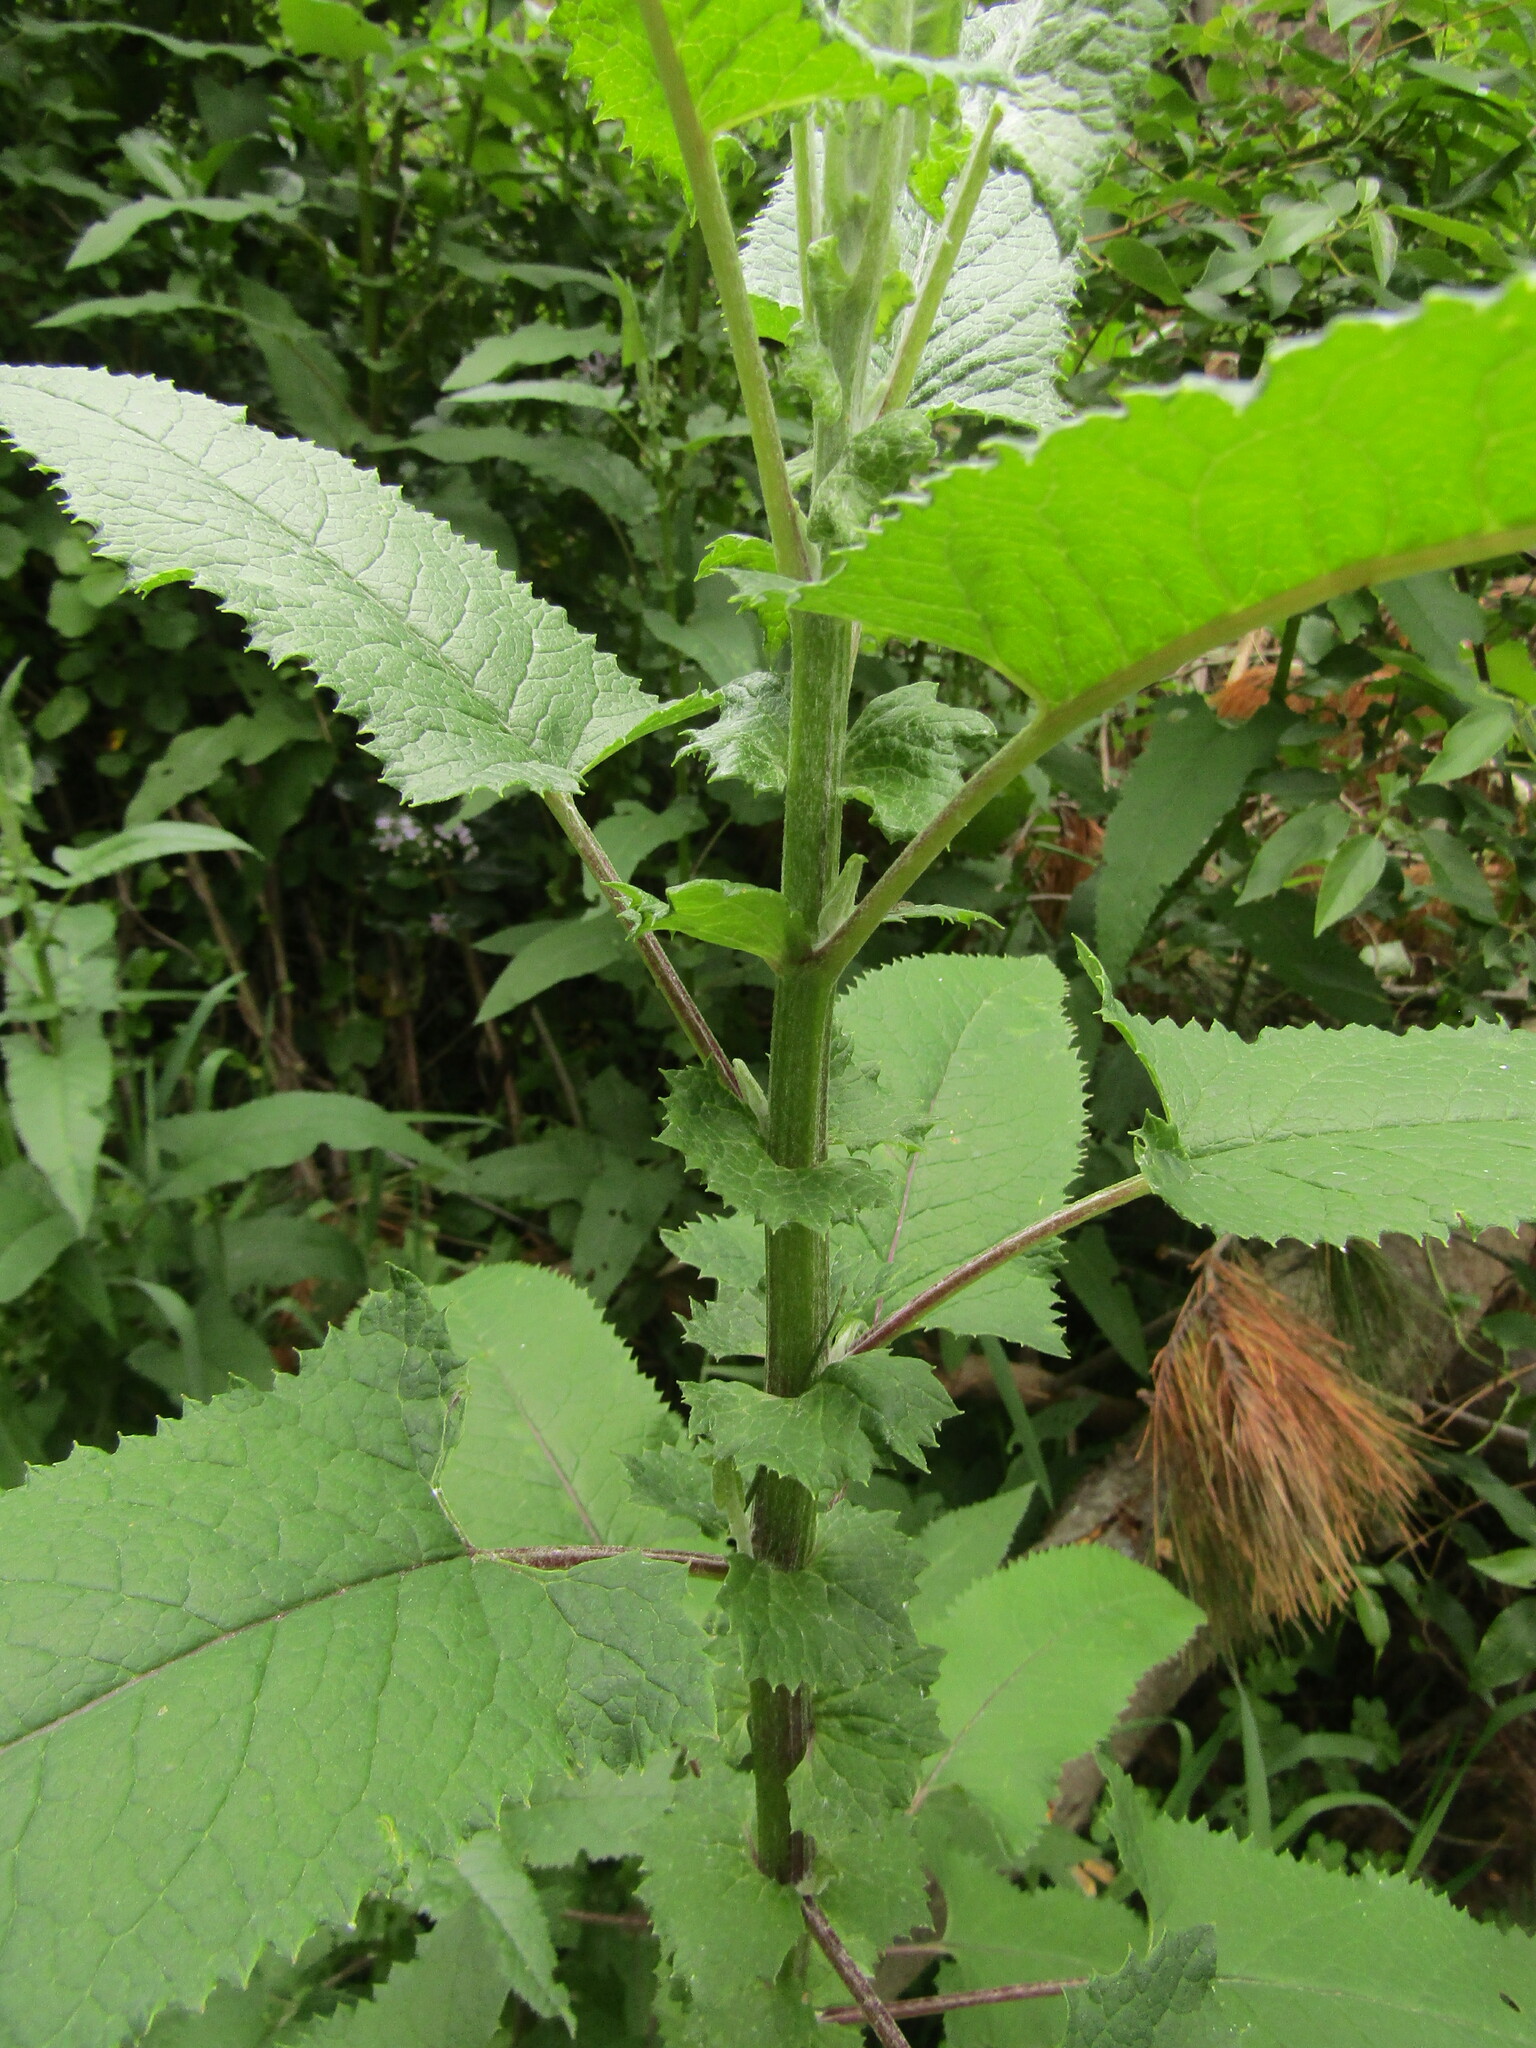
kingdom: Plantae
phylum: Tracheophyta
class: Magnoliopsida
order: Asterales
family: Asteraceae
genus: Senecio
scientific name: Senecio otites
